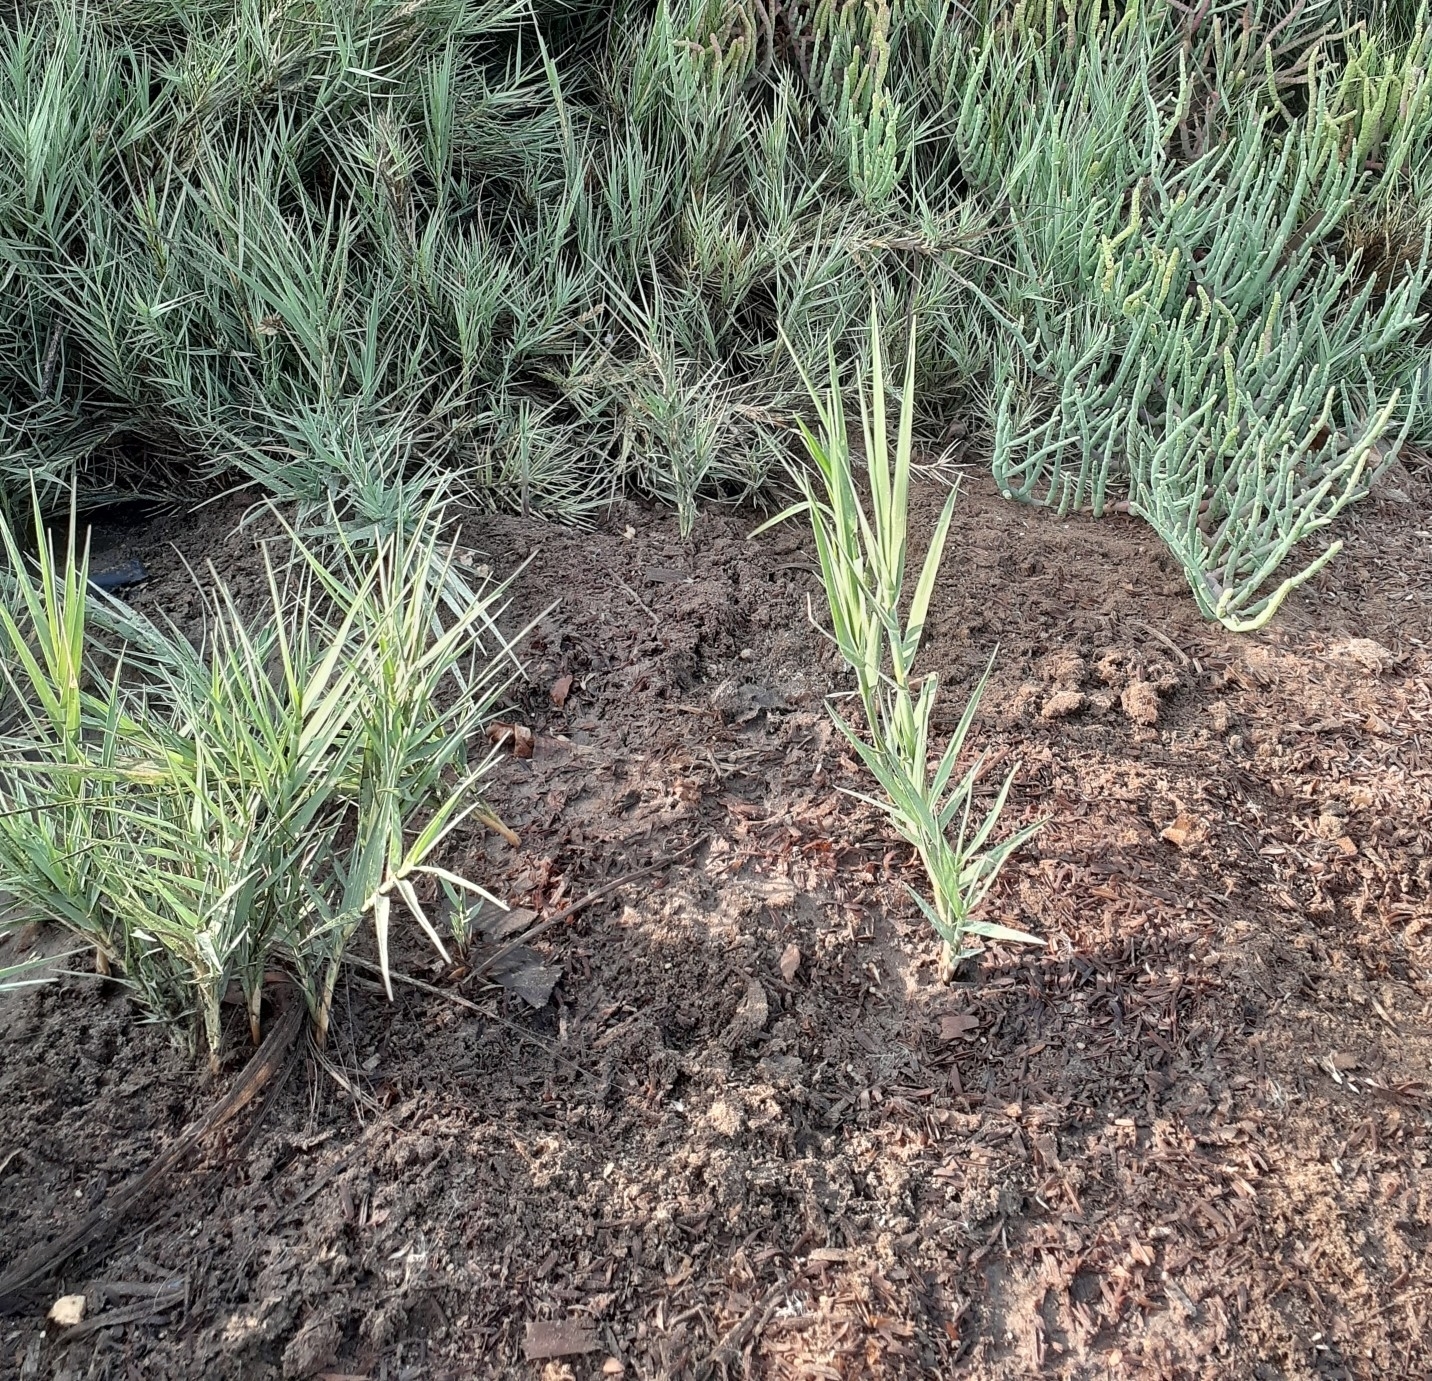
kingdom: Plantae
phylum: Tracheophyta
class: Liliopsida
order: Poales
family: Poaceae
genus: Distichlis
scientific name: Distichlis spicata
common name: Saltgrass
